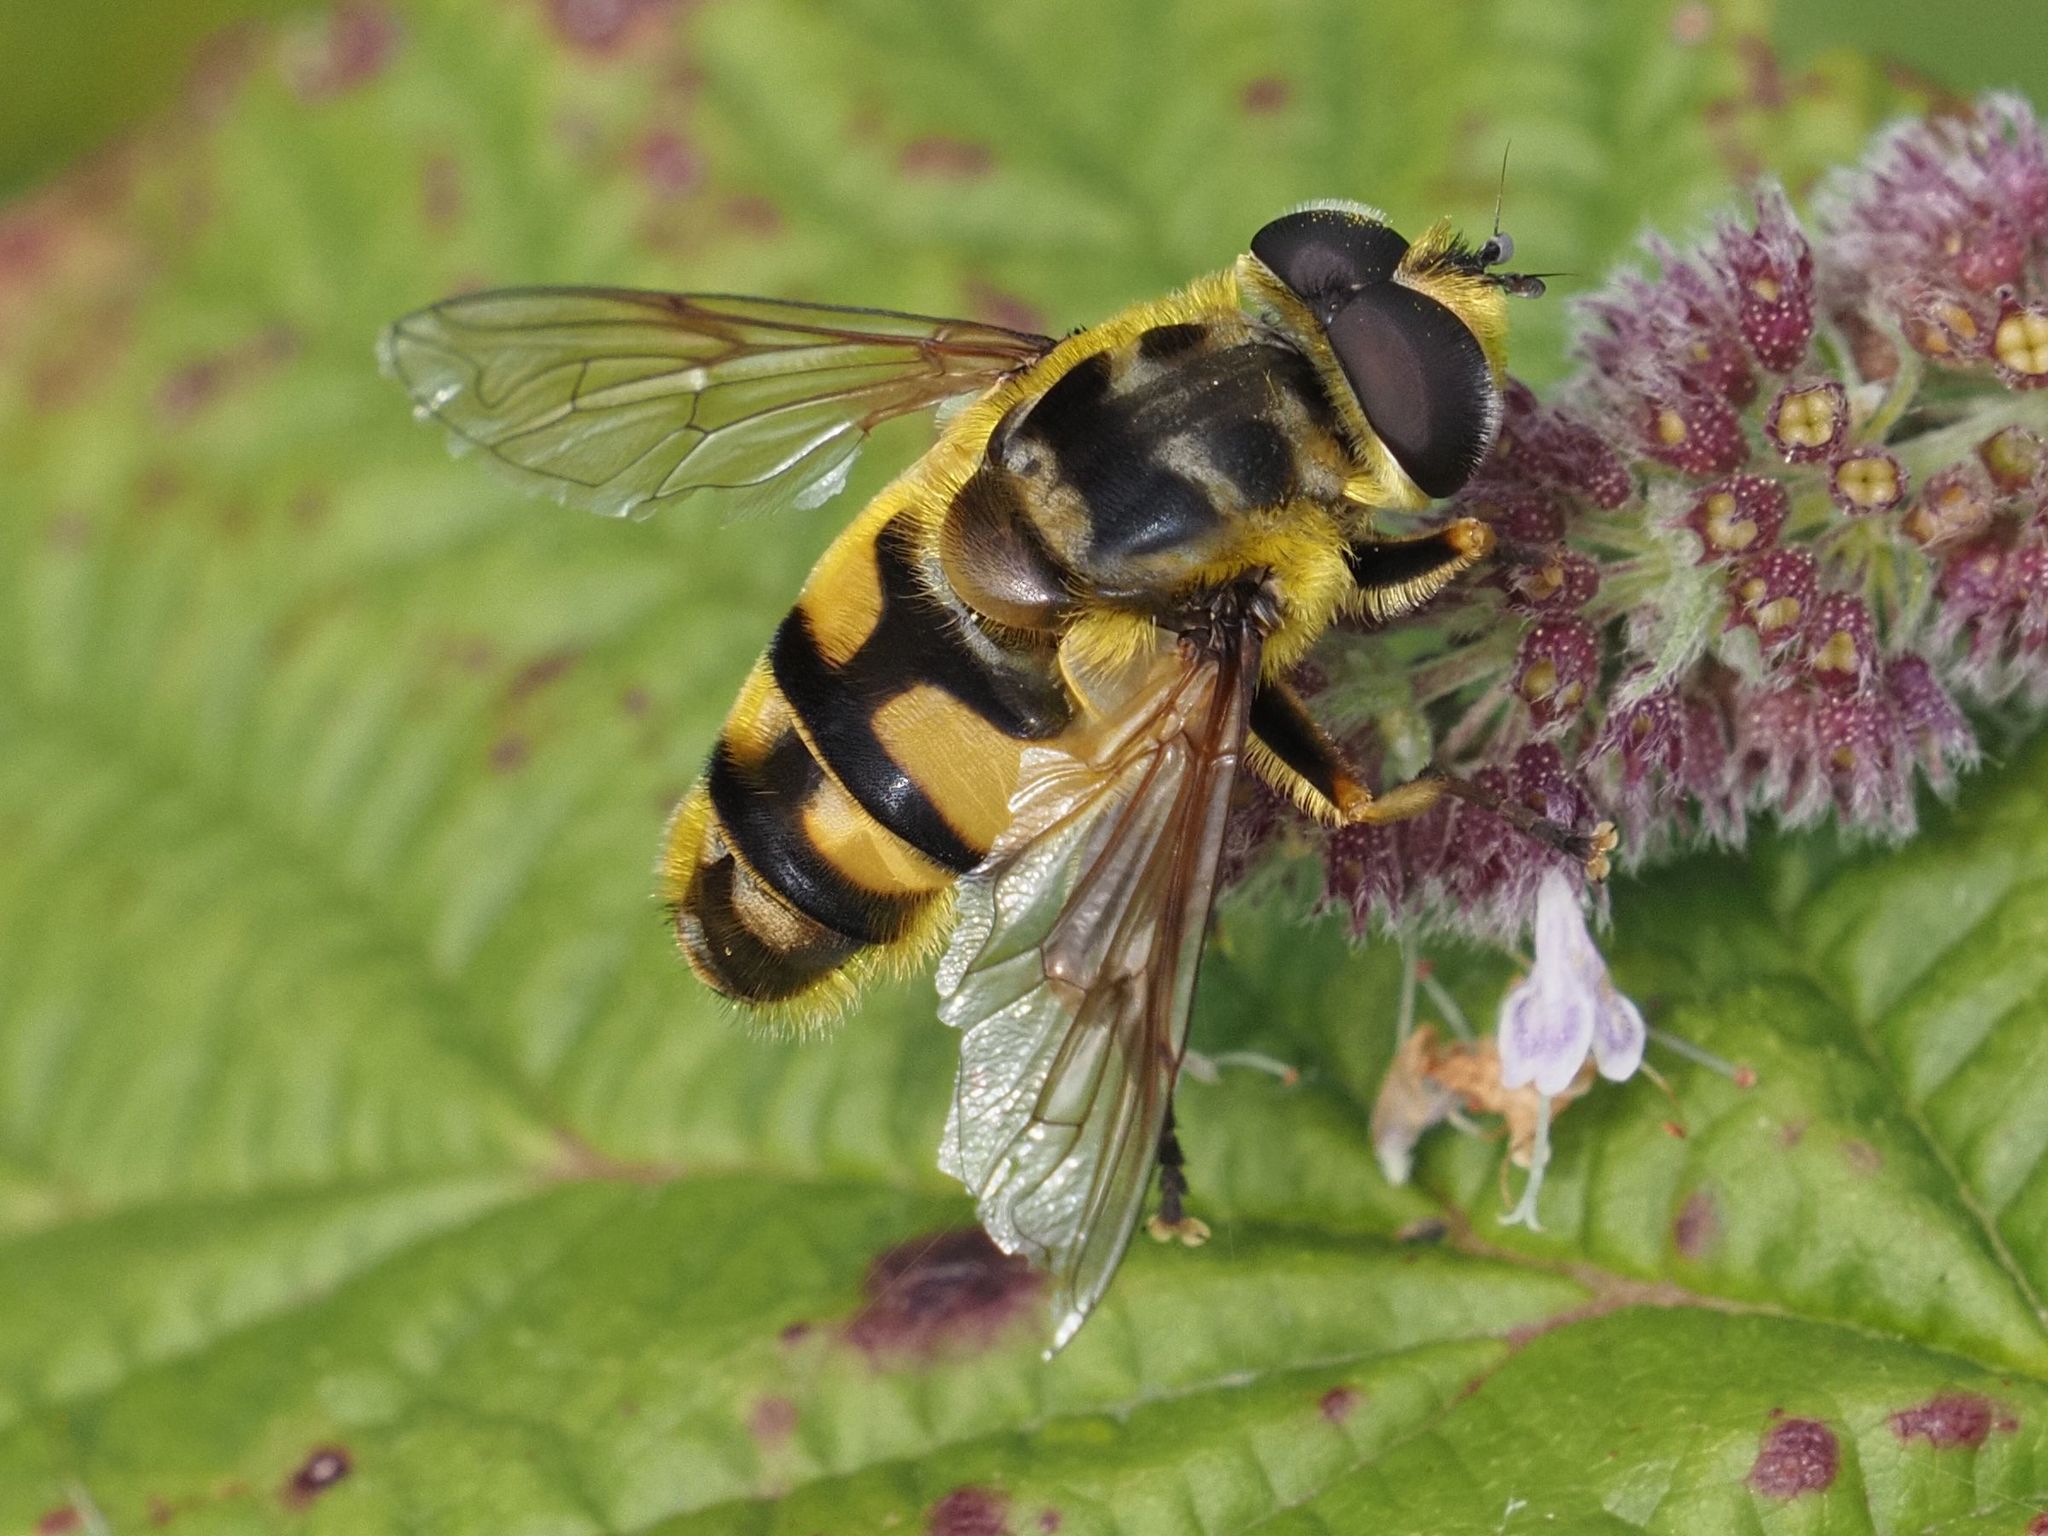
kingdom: Animalia
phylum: Arthropoda
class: Insecta
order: Diptera
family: Syrphidae
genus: Myathropa
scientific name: Myathropa florea
